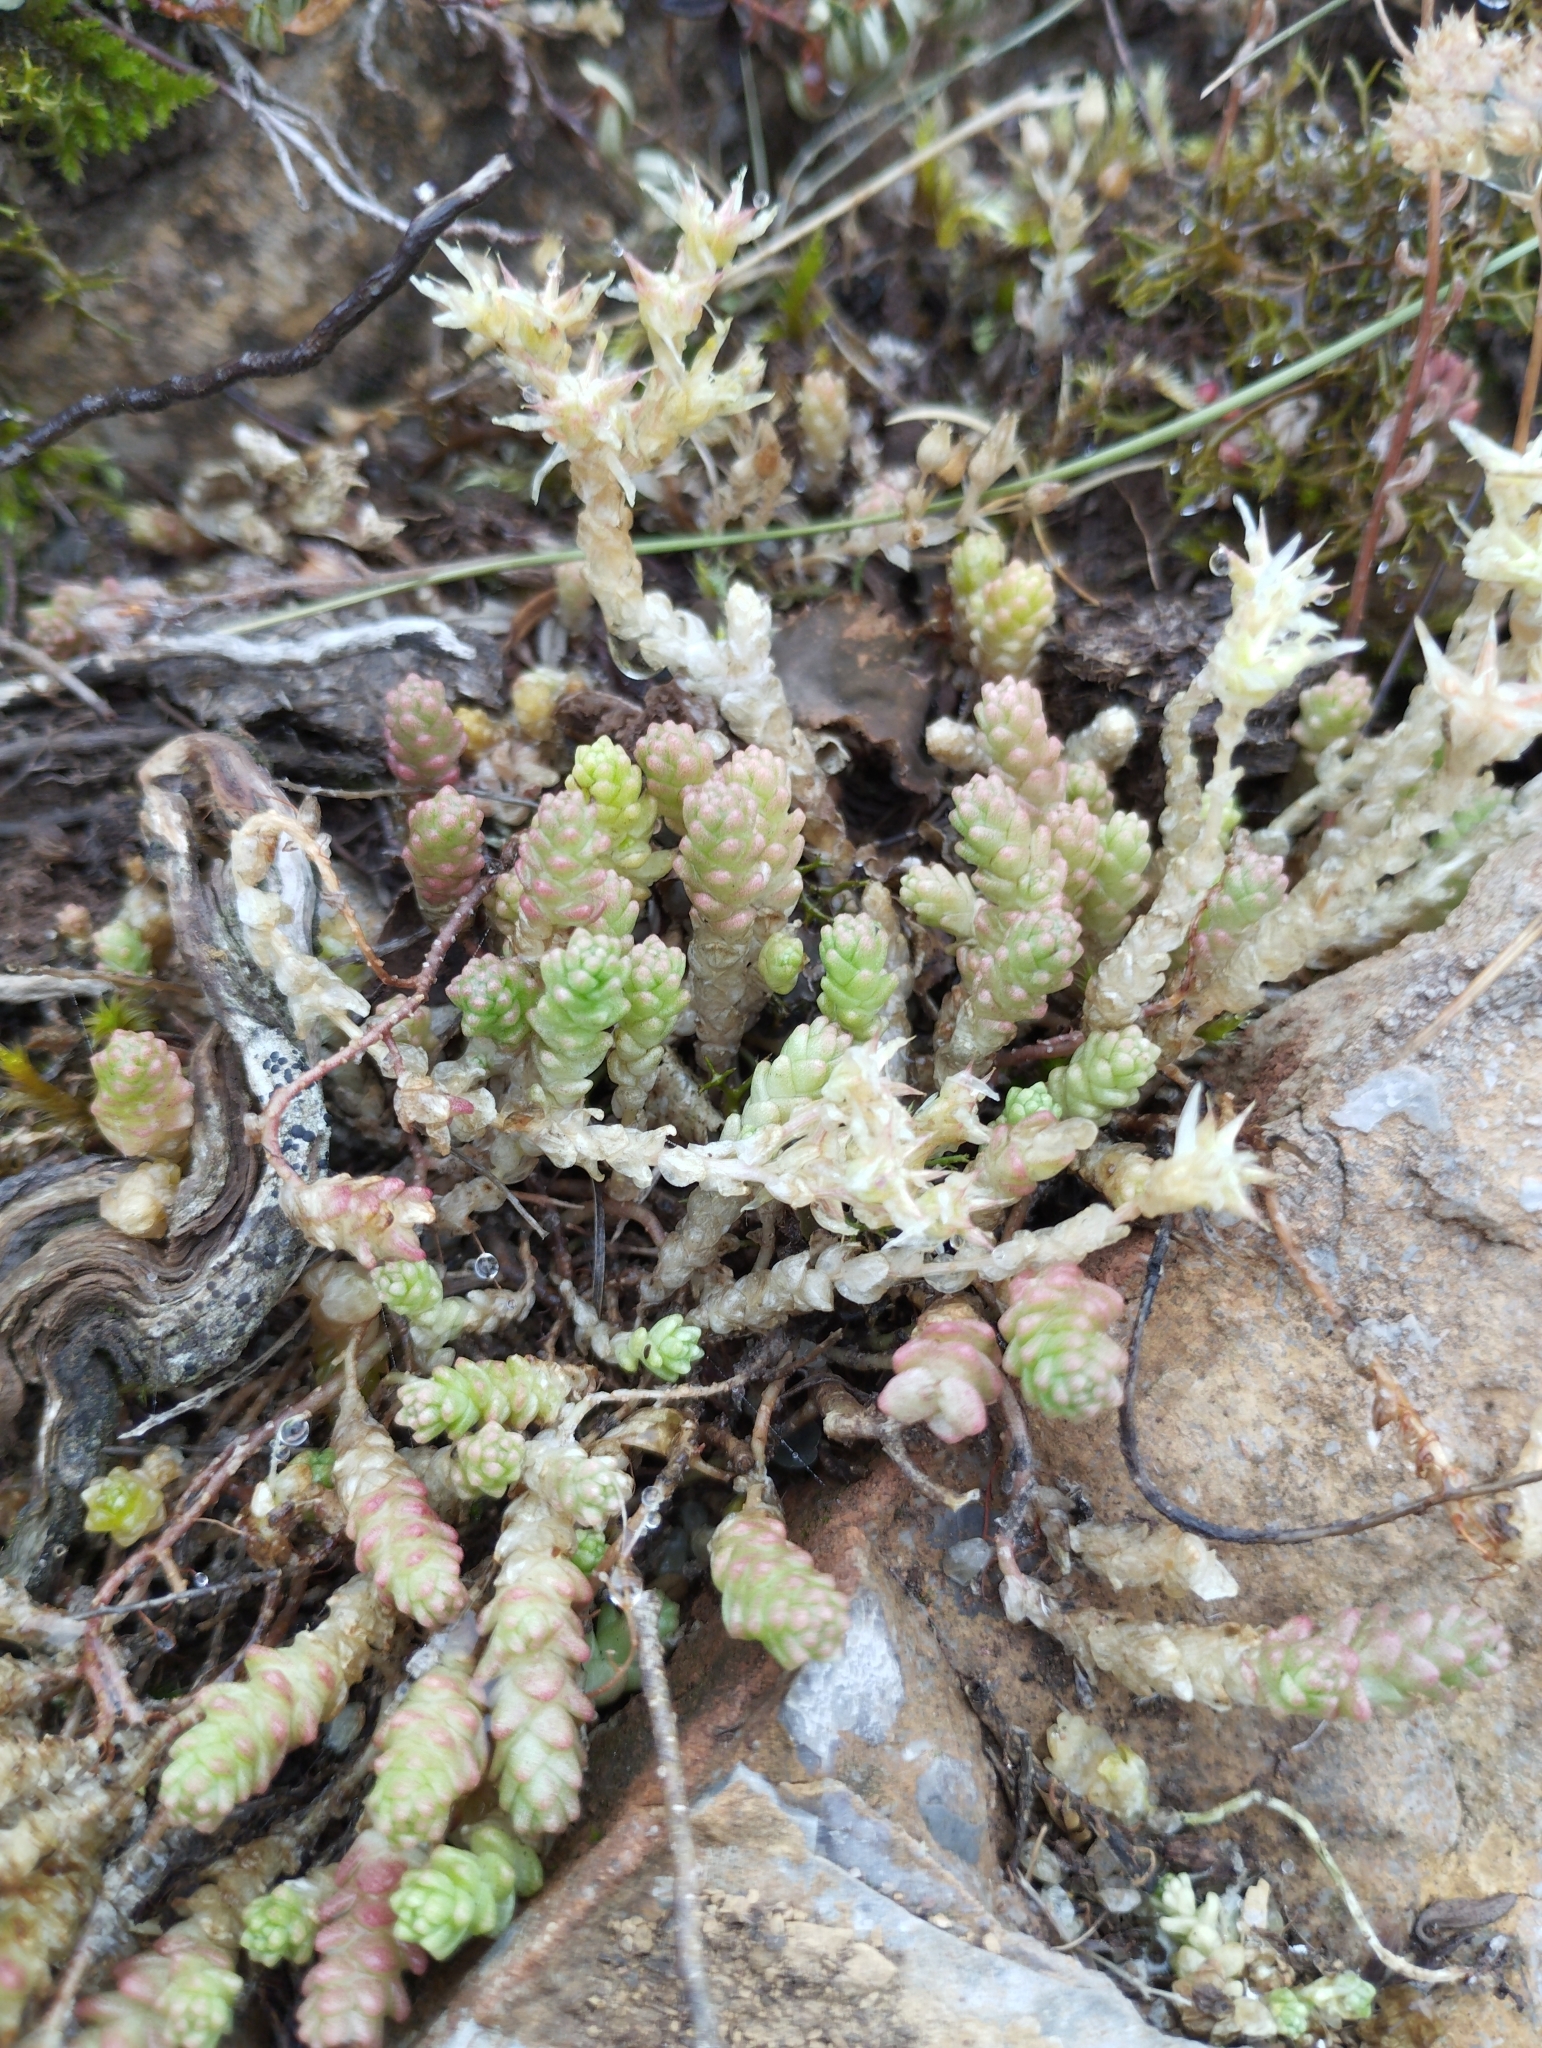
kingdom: Plantae
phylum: Tracheophyta
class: Magnoliopsida
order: Saxifragales
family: Crassulaceae
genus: Sedum
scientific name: Sedum acre
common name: Biting stonecrop
